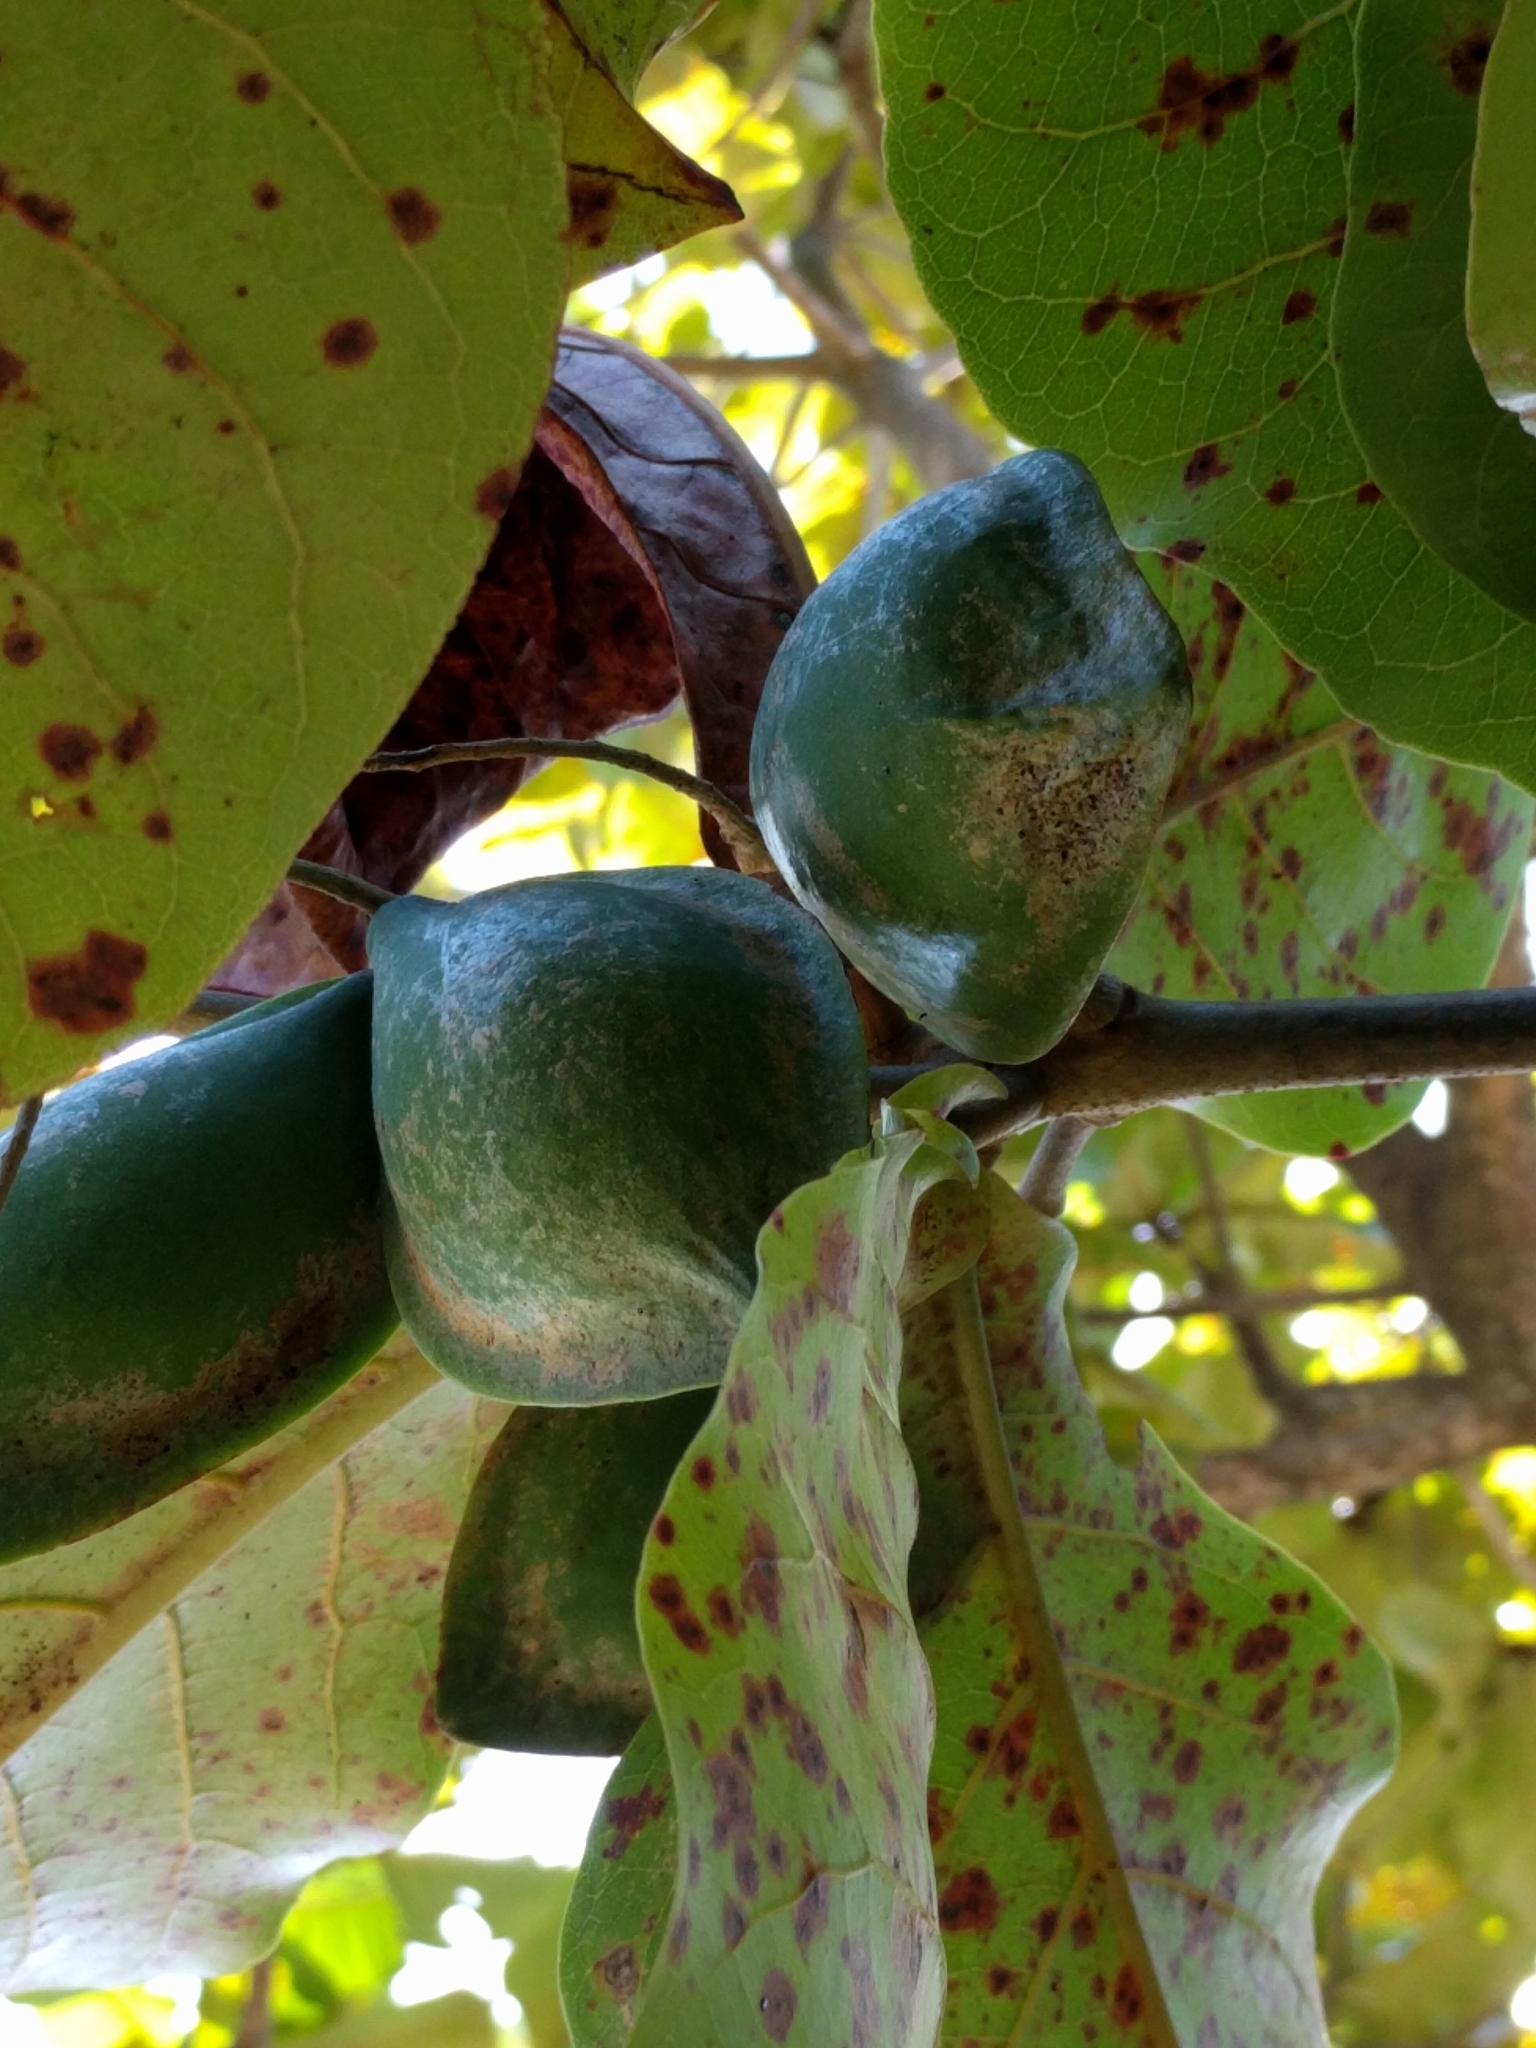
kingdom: Plantae
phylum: Tracheophyta
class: Magnoliopsida
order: Myrtales
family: Combretaceae
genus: Terminalia
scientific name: Terminalia catappa
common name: Tropical almond
